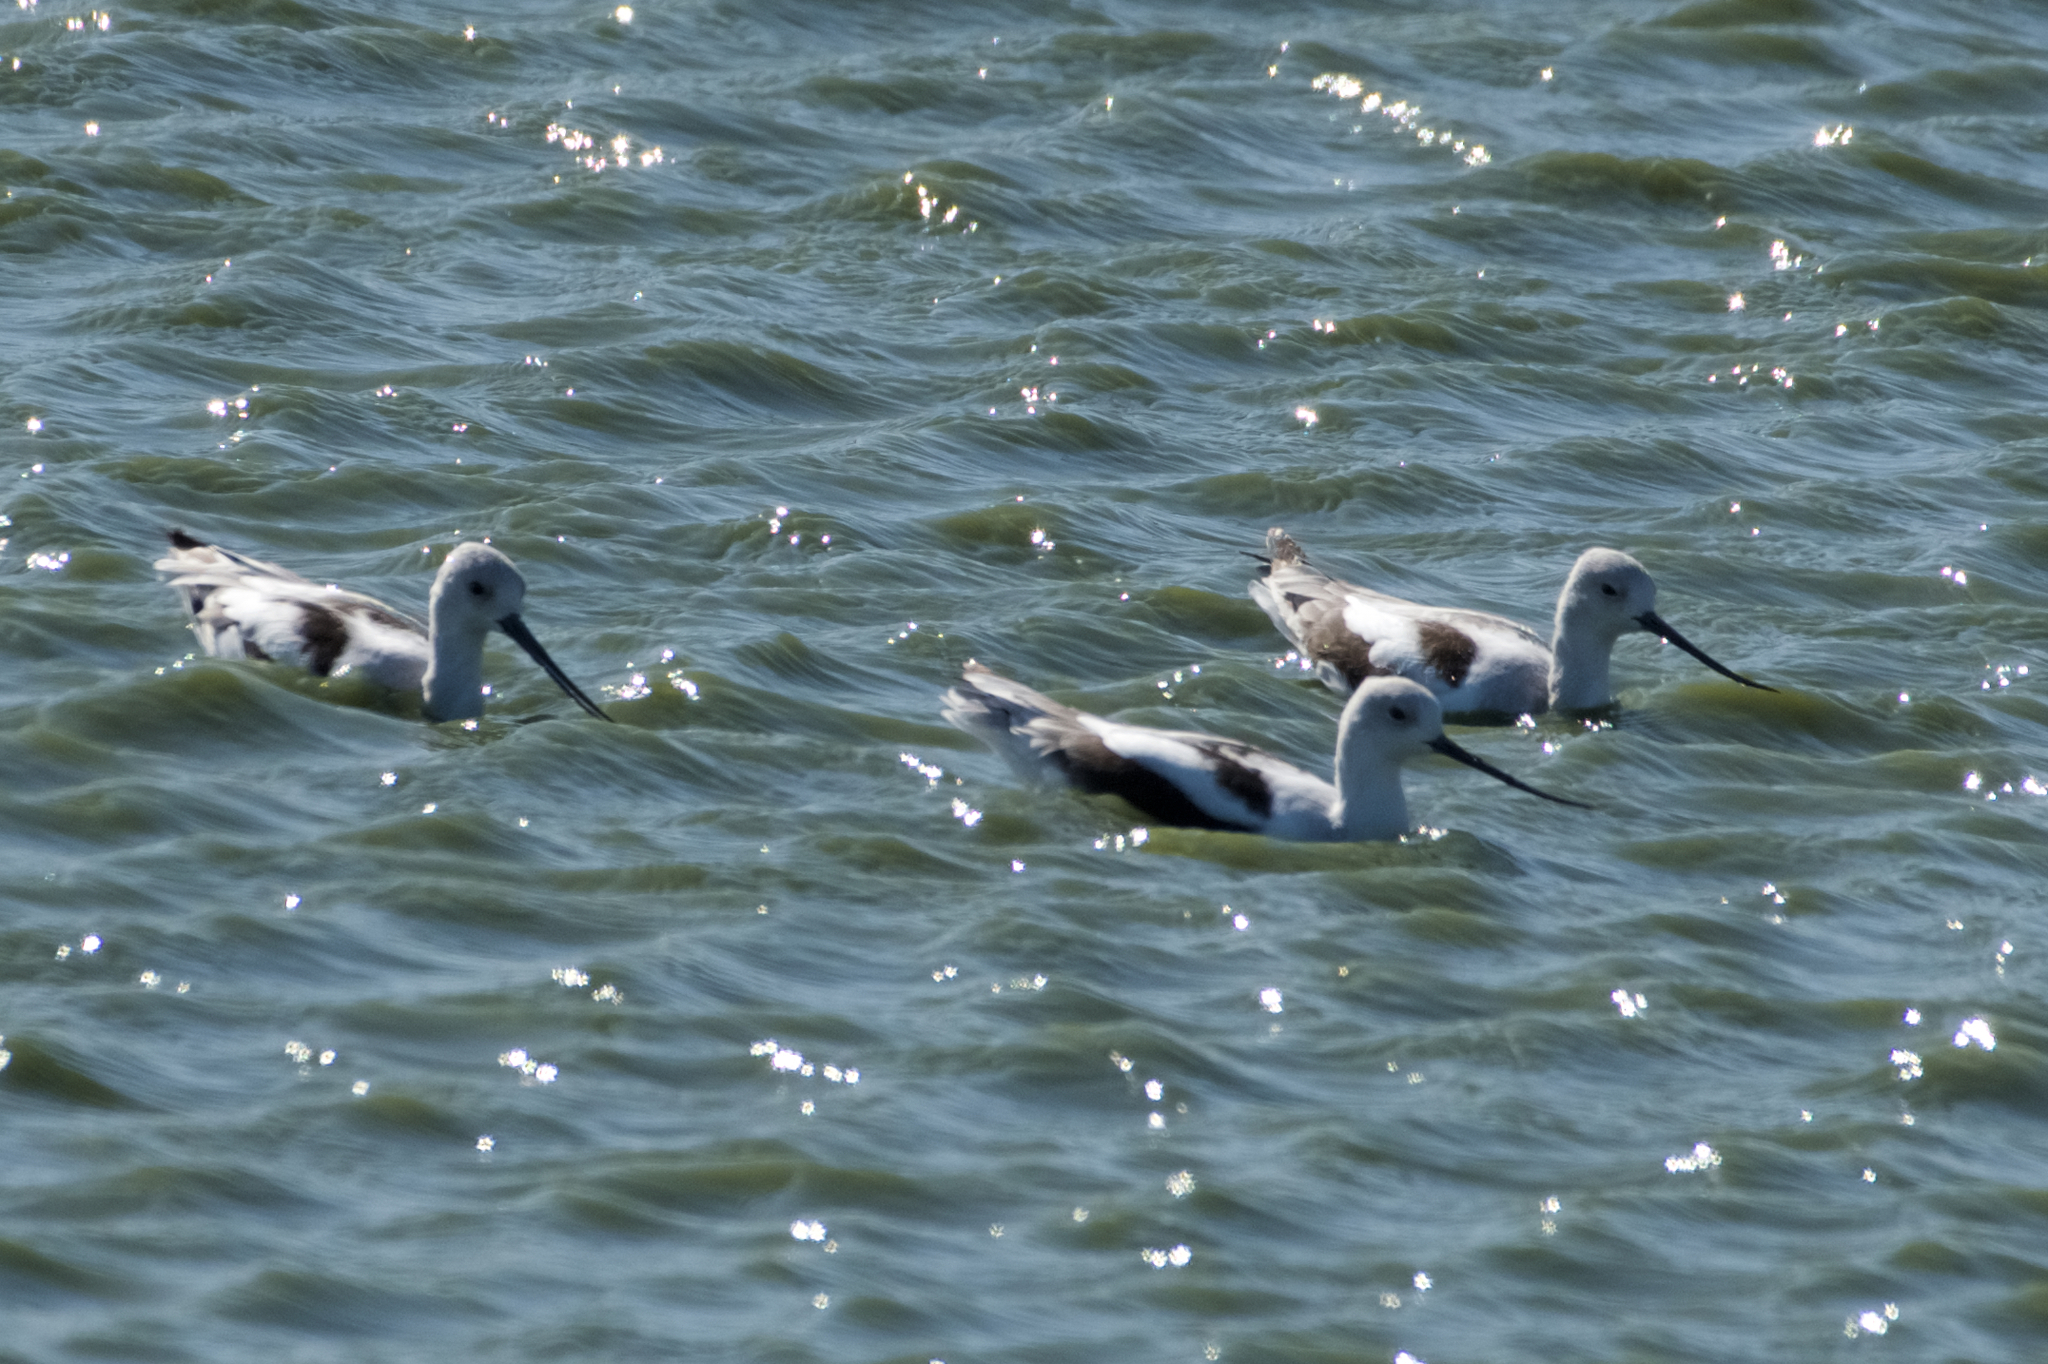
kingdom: Animalia
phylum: Chordata
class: Aves
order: Charadriiformes
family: Recurvirostridae
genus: Recurvirostra
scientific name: Recurvirostra americana
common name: American avocet
